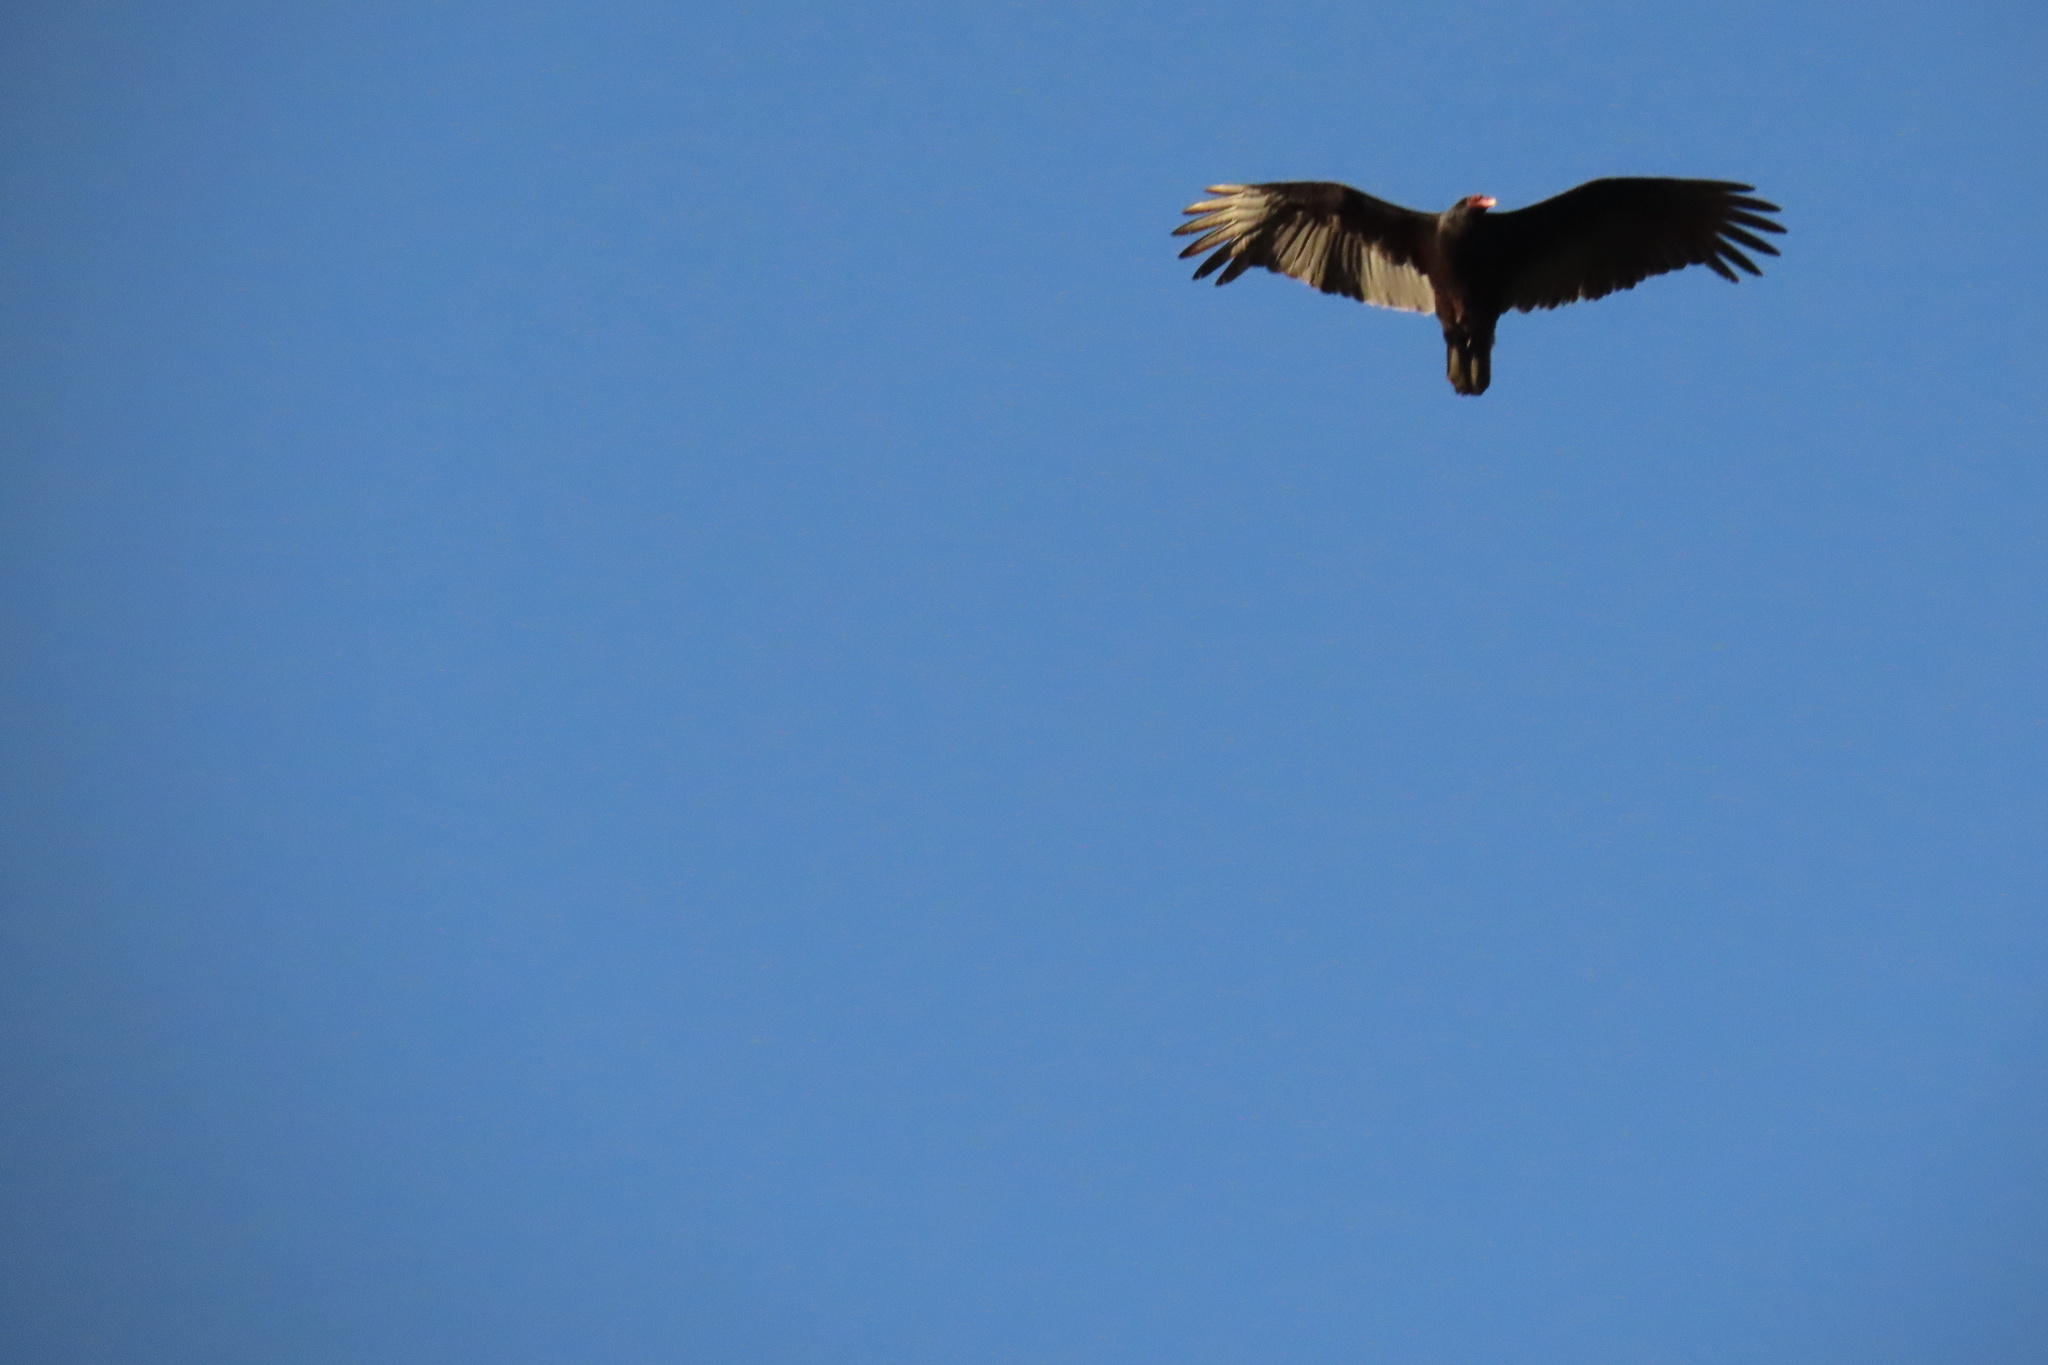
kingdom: Animalia
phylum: Chordata
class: Aves
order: Accipitriformes
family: Cathartidae
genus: Cathartes
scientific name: Cathartes aura
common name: Turkey vulture
